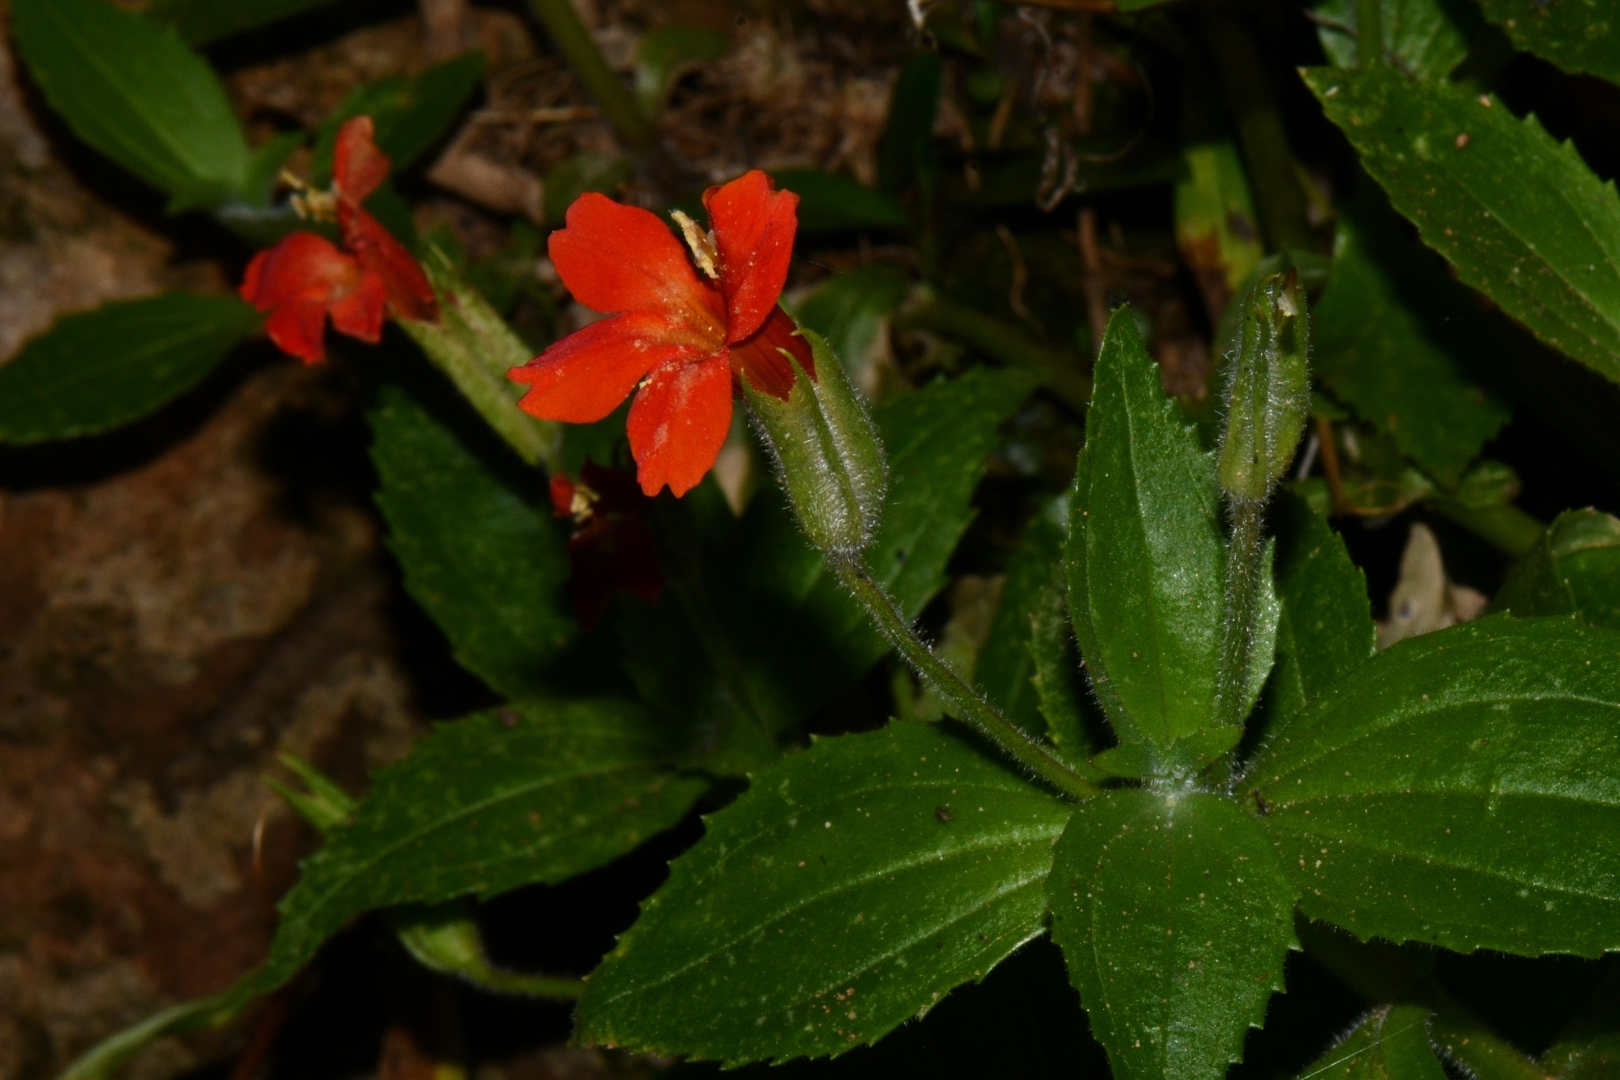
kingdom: Plantae
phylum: Tracheophyta
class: Magnoliopsida
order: Lamiales
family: Phrymaceae
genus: Erythranthe
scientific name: Erythranthe verbenacea
